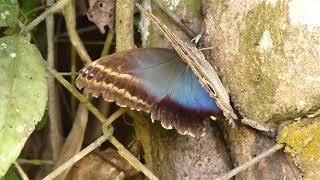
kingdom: Animalia
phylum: Arthropoda
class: Insecta
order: Lepidoptera
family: Nymphalidae
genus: Caligo
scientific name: Caligo illioneus
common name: Dusky owl-butterfly
